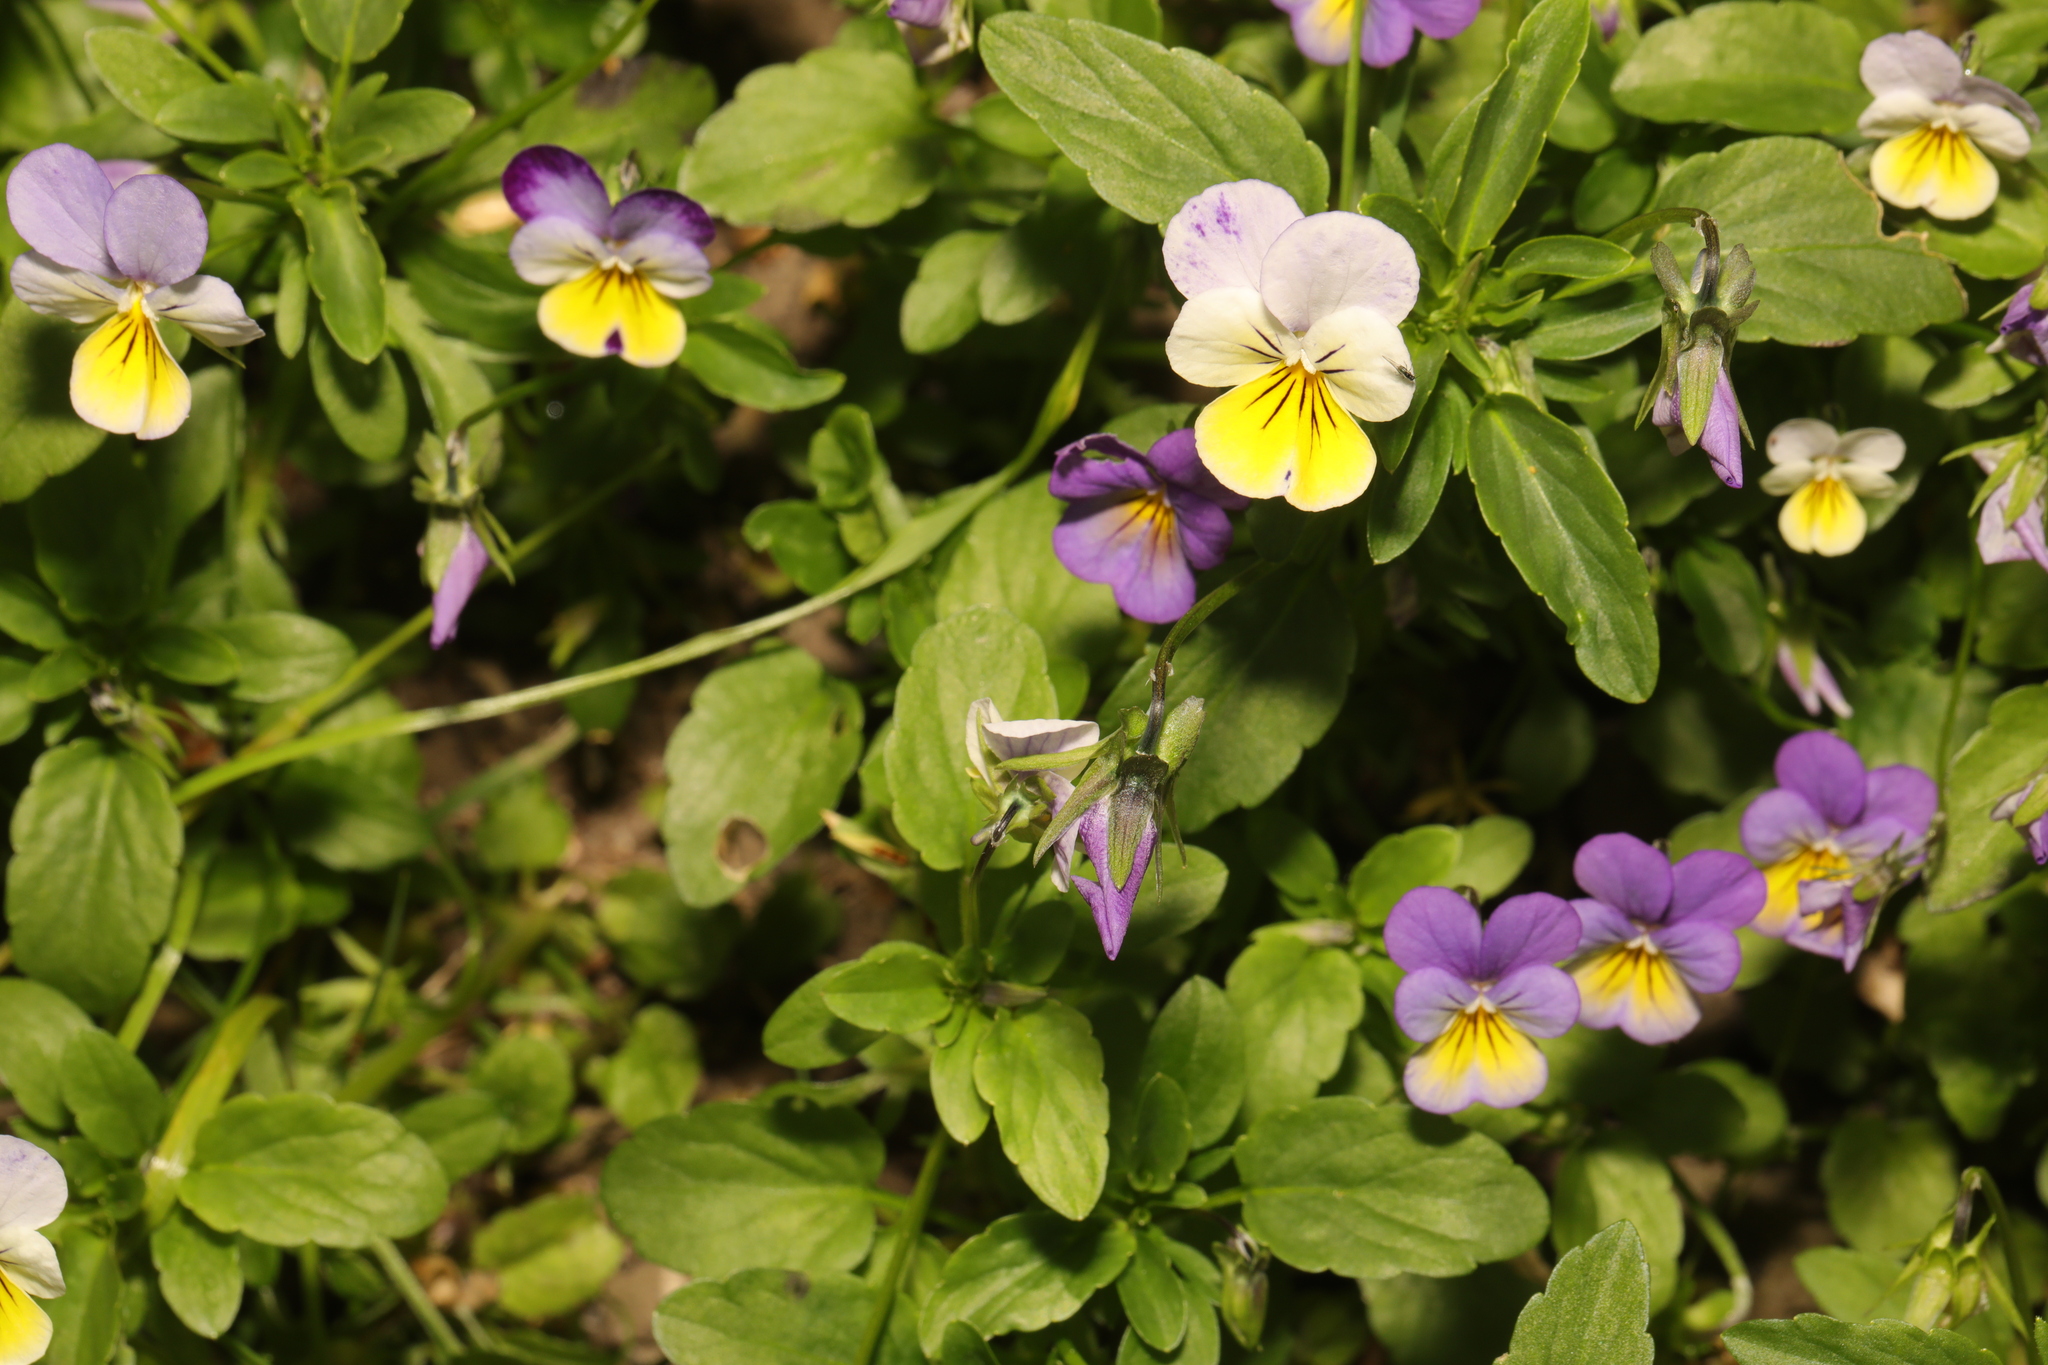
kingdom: Plantae
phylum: Tracheophyta
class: Magnoliopsida
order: Malpighiales
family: Violaceae
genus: Viola
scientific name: Viola williamsii
